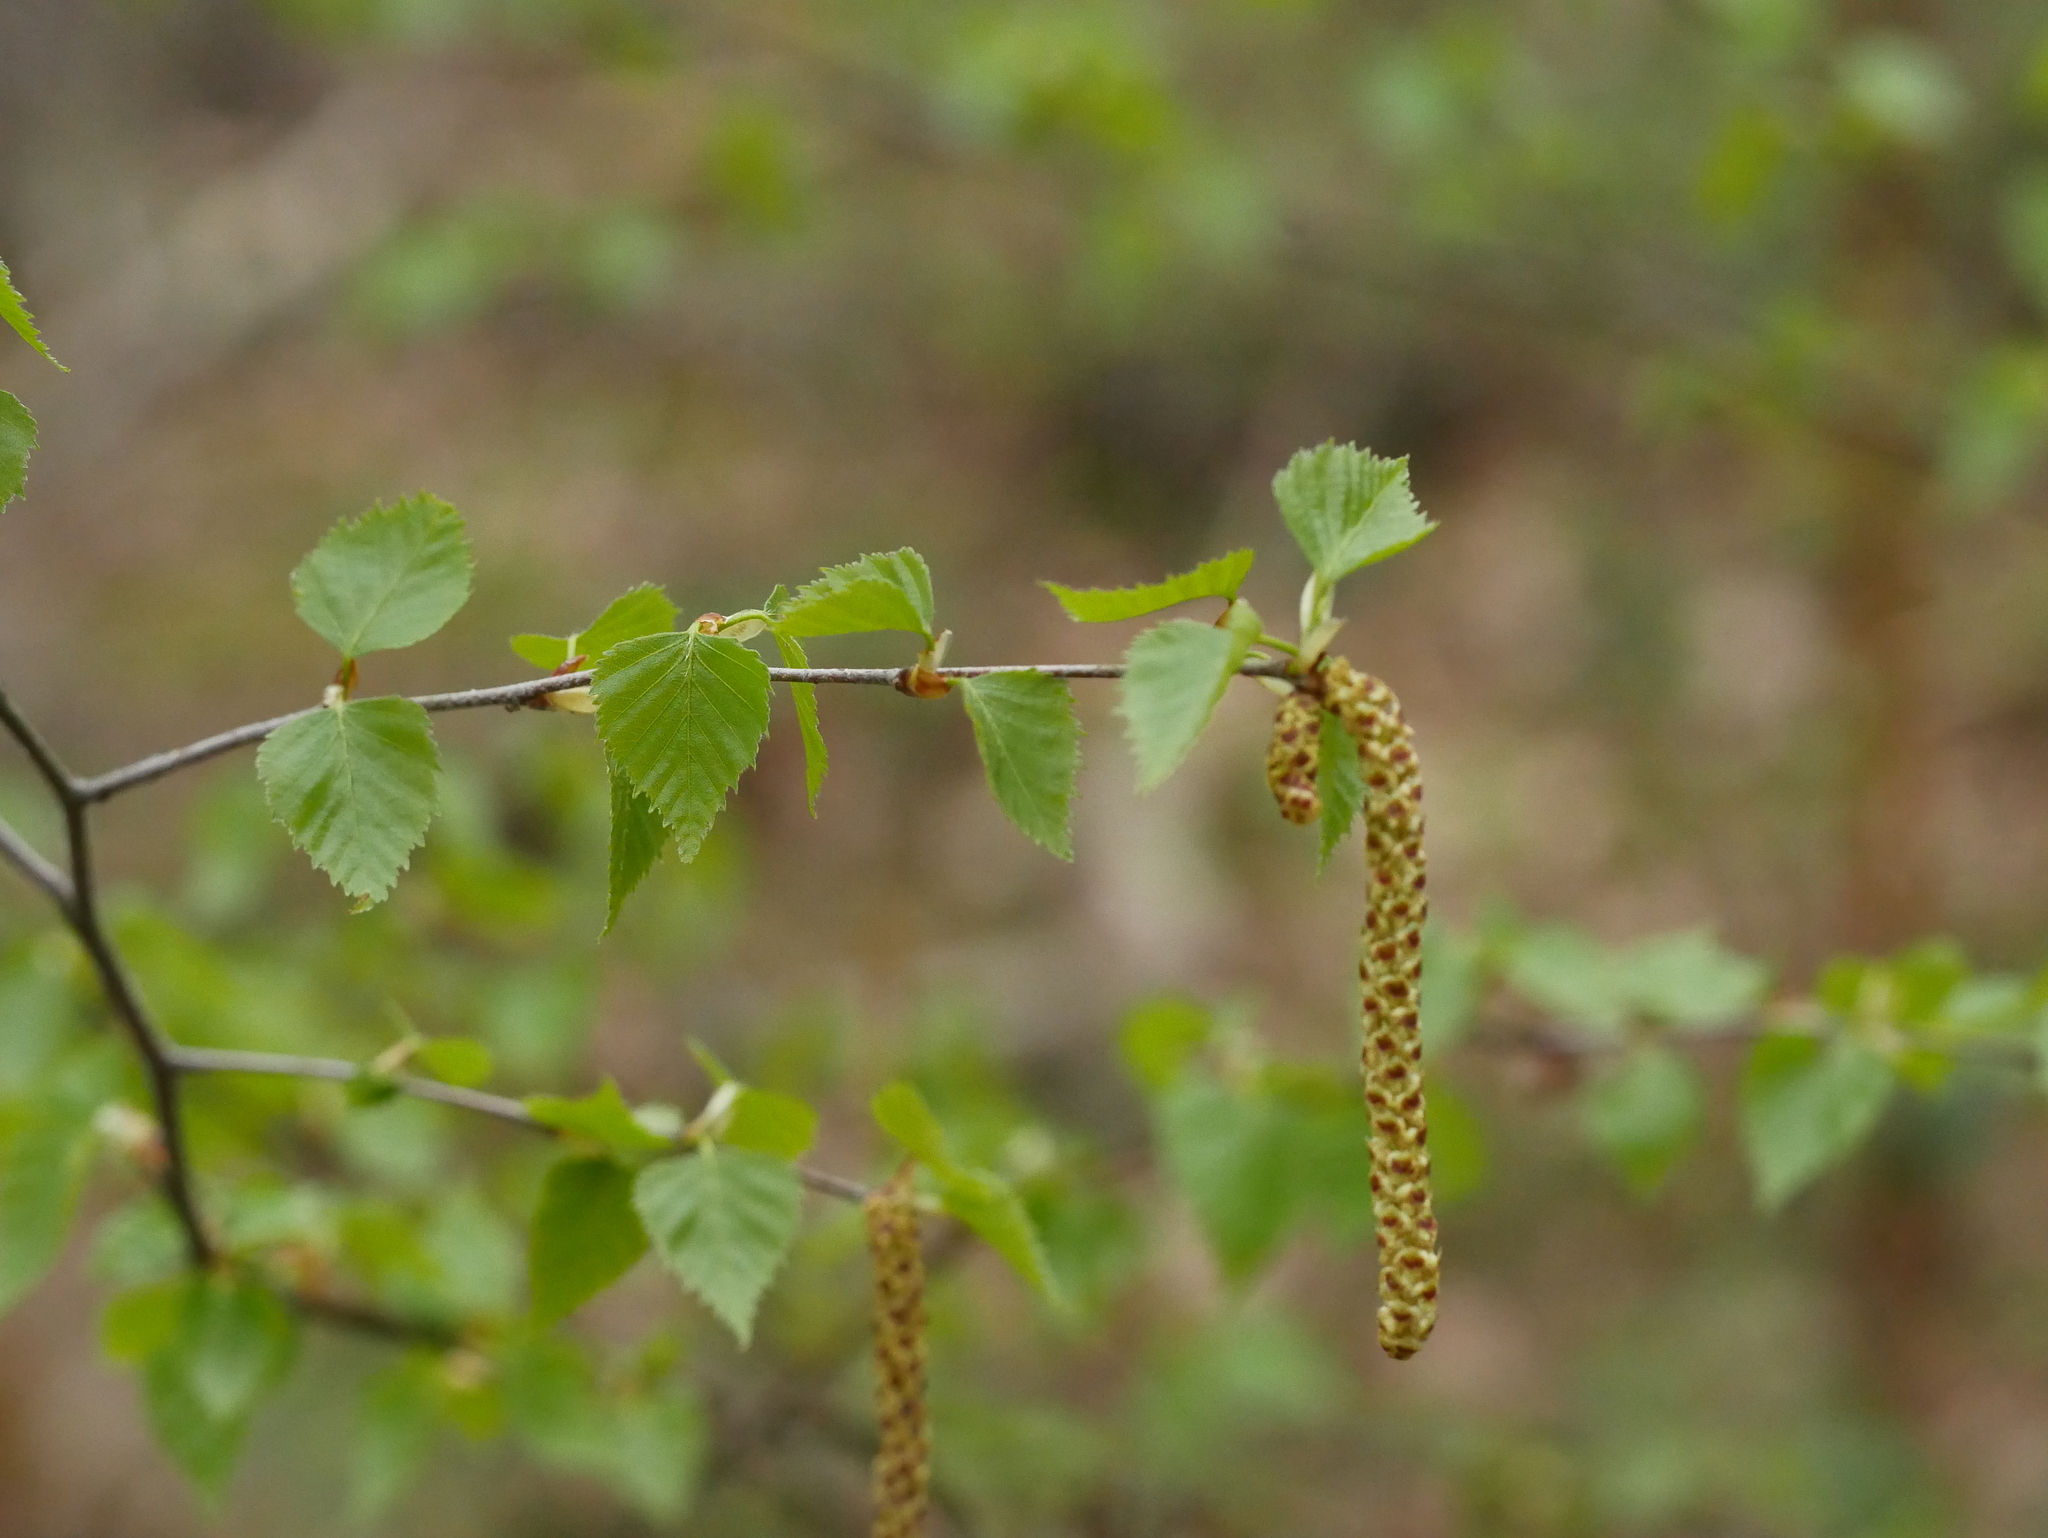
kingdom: Plantae
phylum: Tracheophyta
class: Magnoliopsida
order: Fagales
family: Betulaceae
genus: Betula
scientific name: Betula pendula
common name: Silver birch
